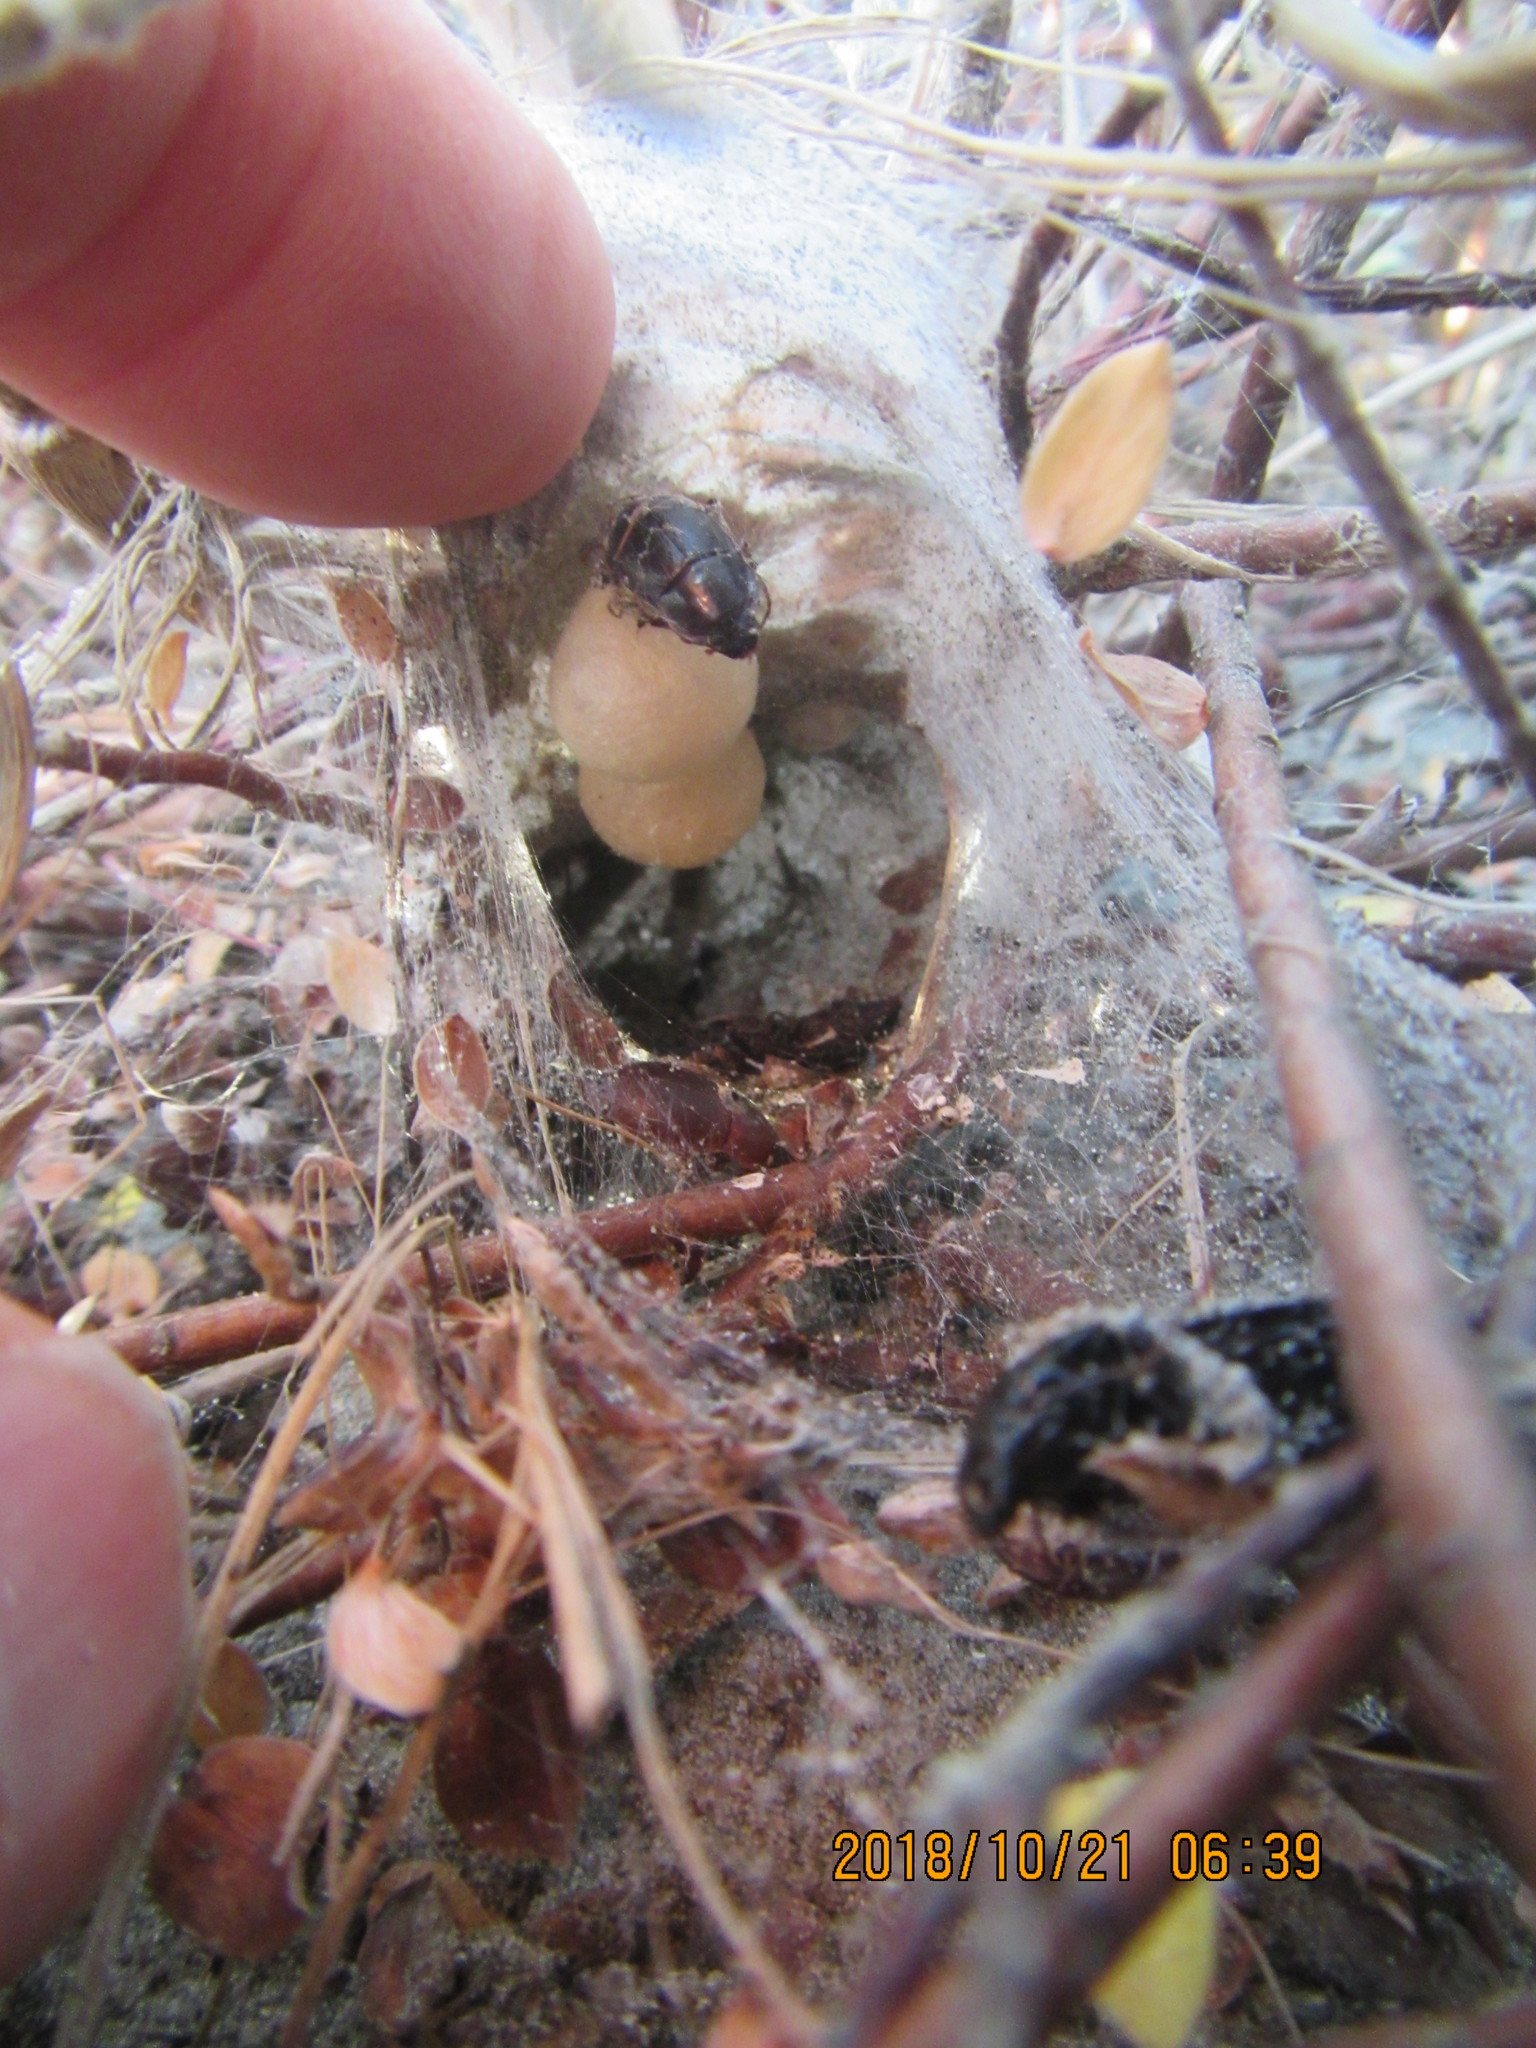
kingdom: Animalia
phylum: Arthropoda
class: Arachnida
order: Araneae
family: Theridiidae
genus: Latrodectus
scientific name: Latrodectus katipo
